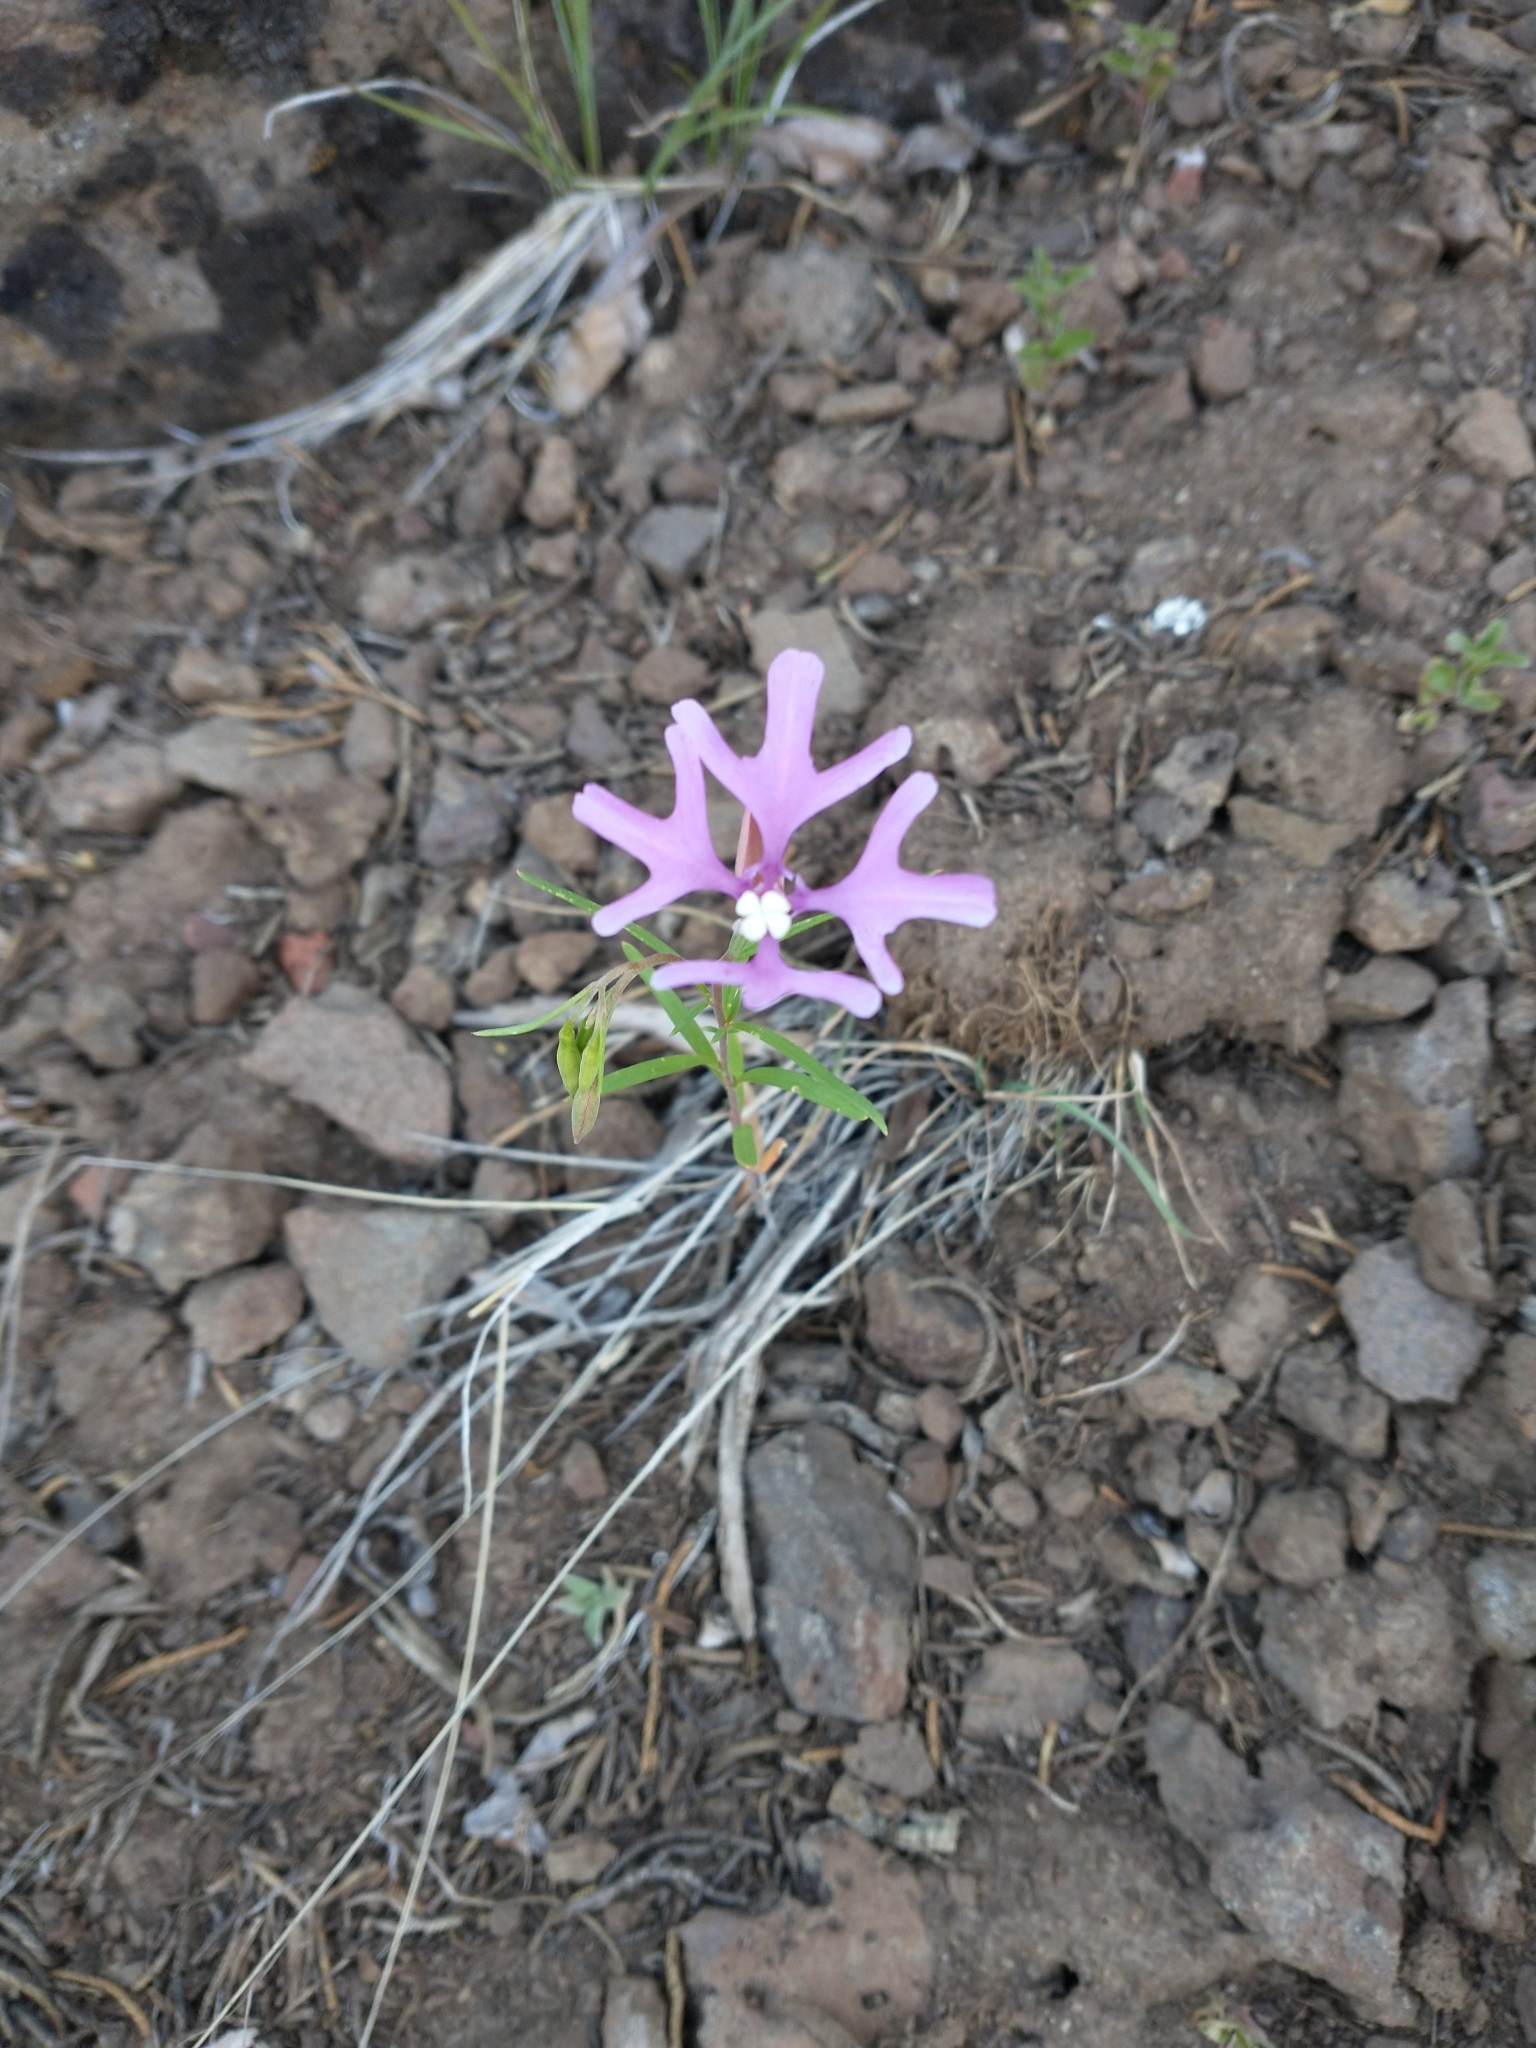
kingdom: Plantae
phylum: Tracheophyta
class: Magnoliopsida
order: Myrtales
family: Onagraceae
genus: Clarkia
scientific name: Clarkia pulchella
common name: Deer horn
